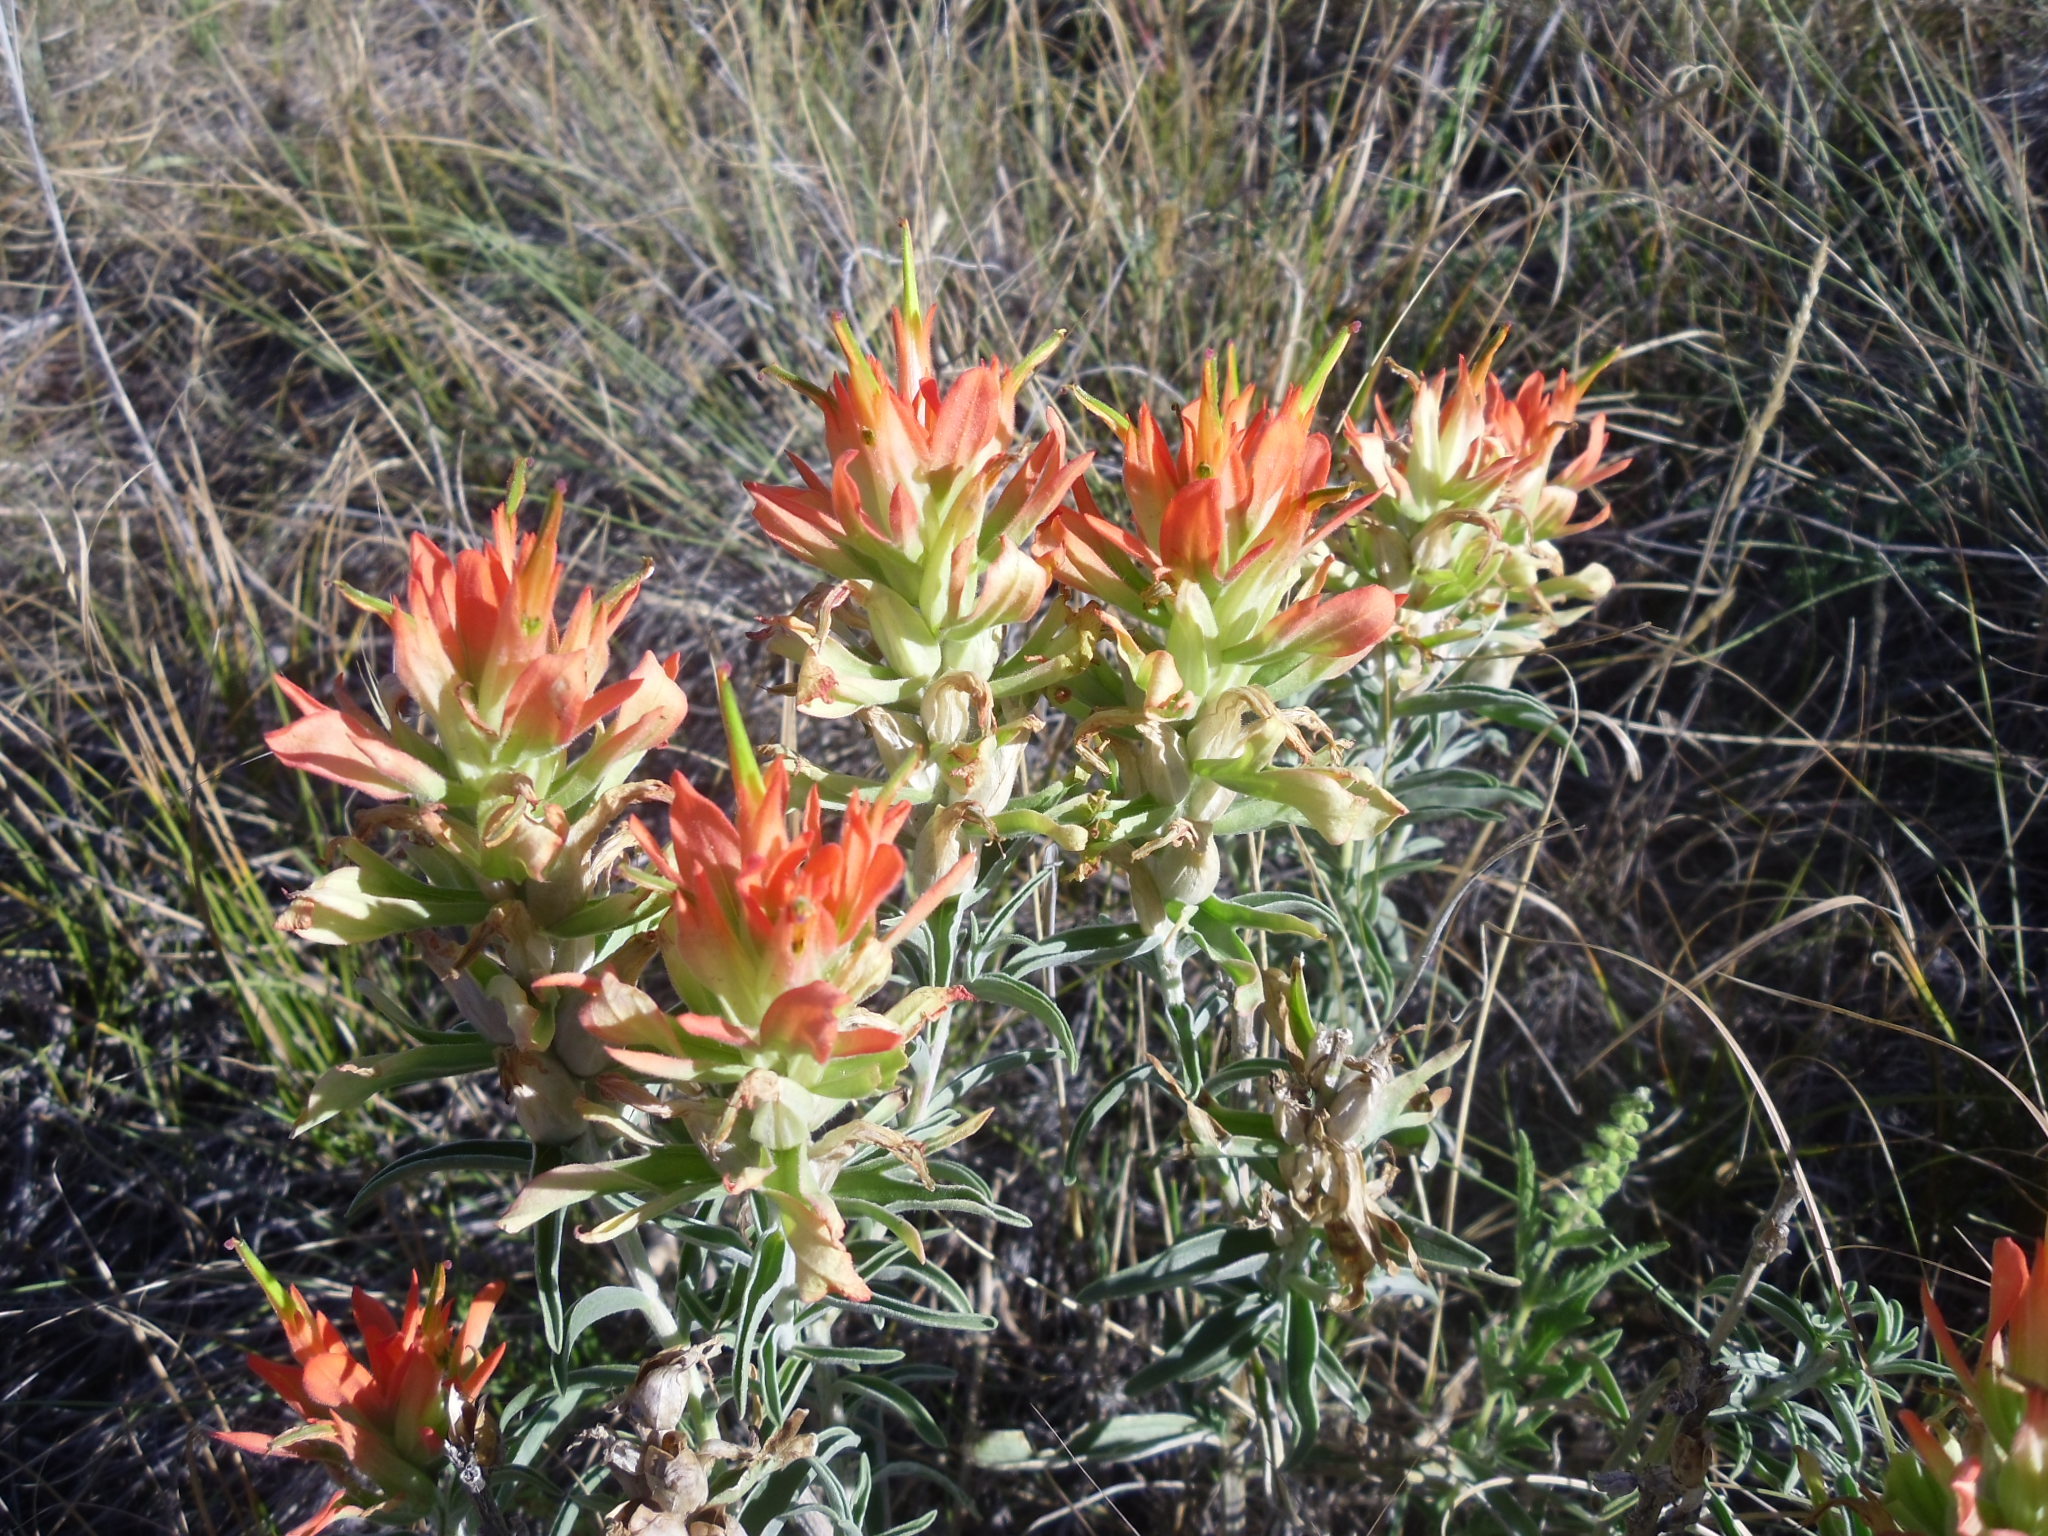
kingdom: Plantae
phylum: Tracheophyta
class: Magnoliopsida
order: Lamiales
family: Orobanchaceae
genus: Castilleja
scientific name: Castilleja integra
